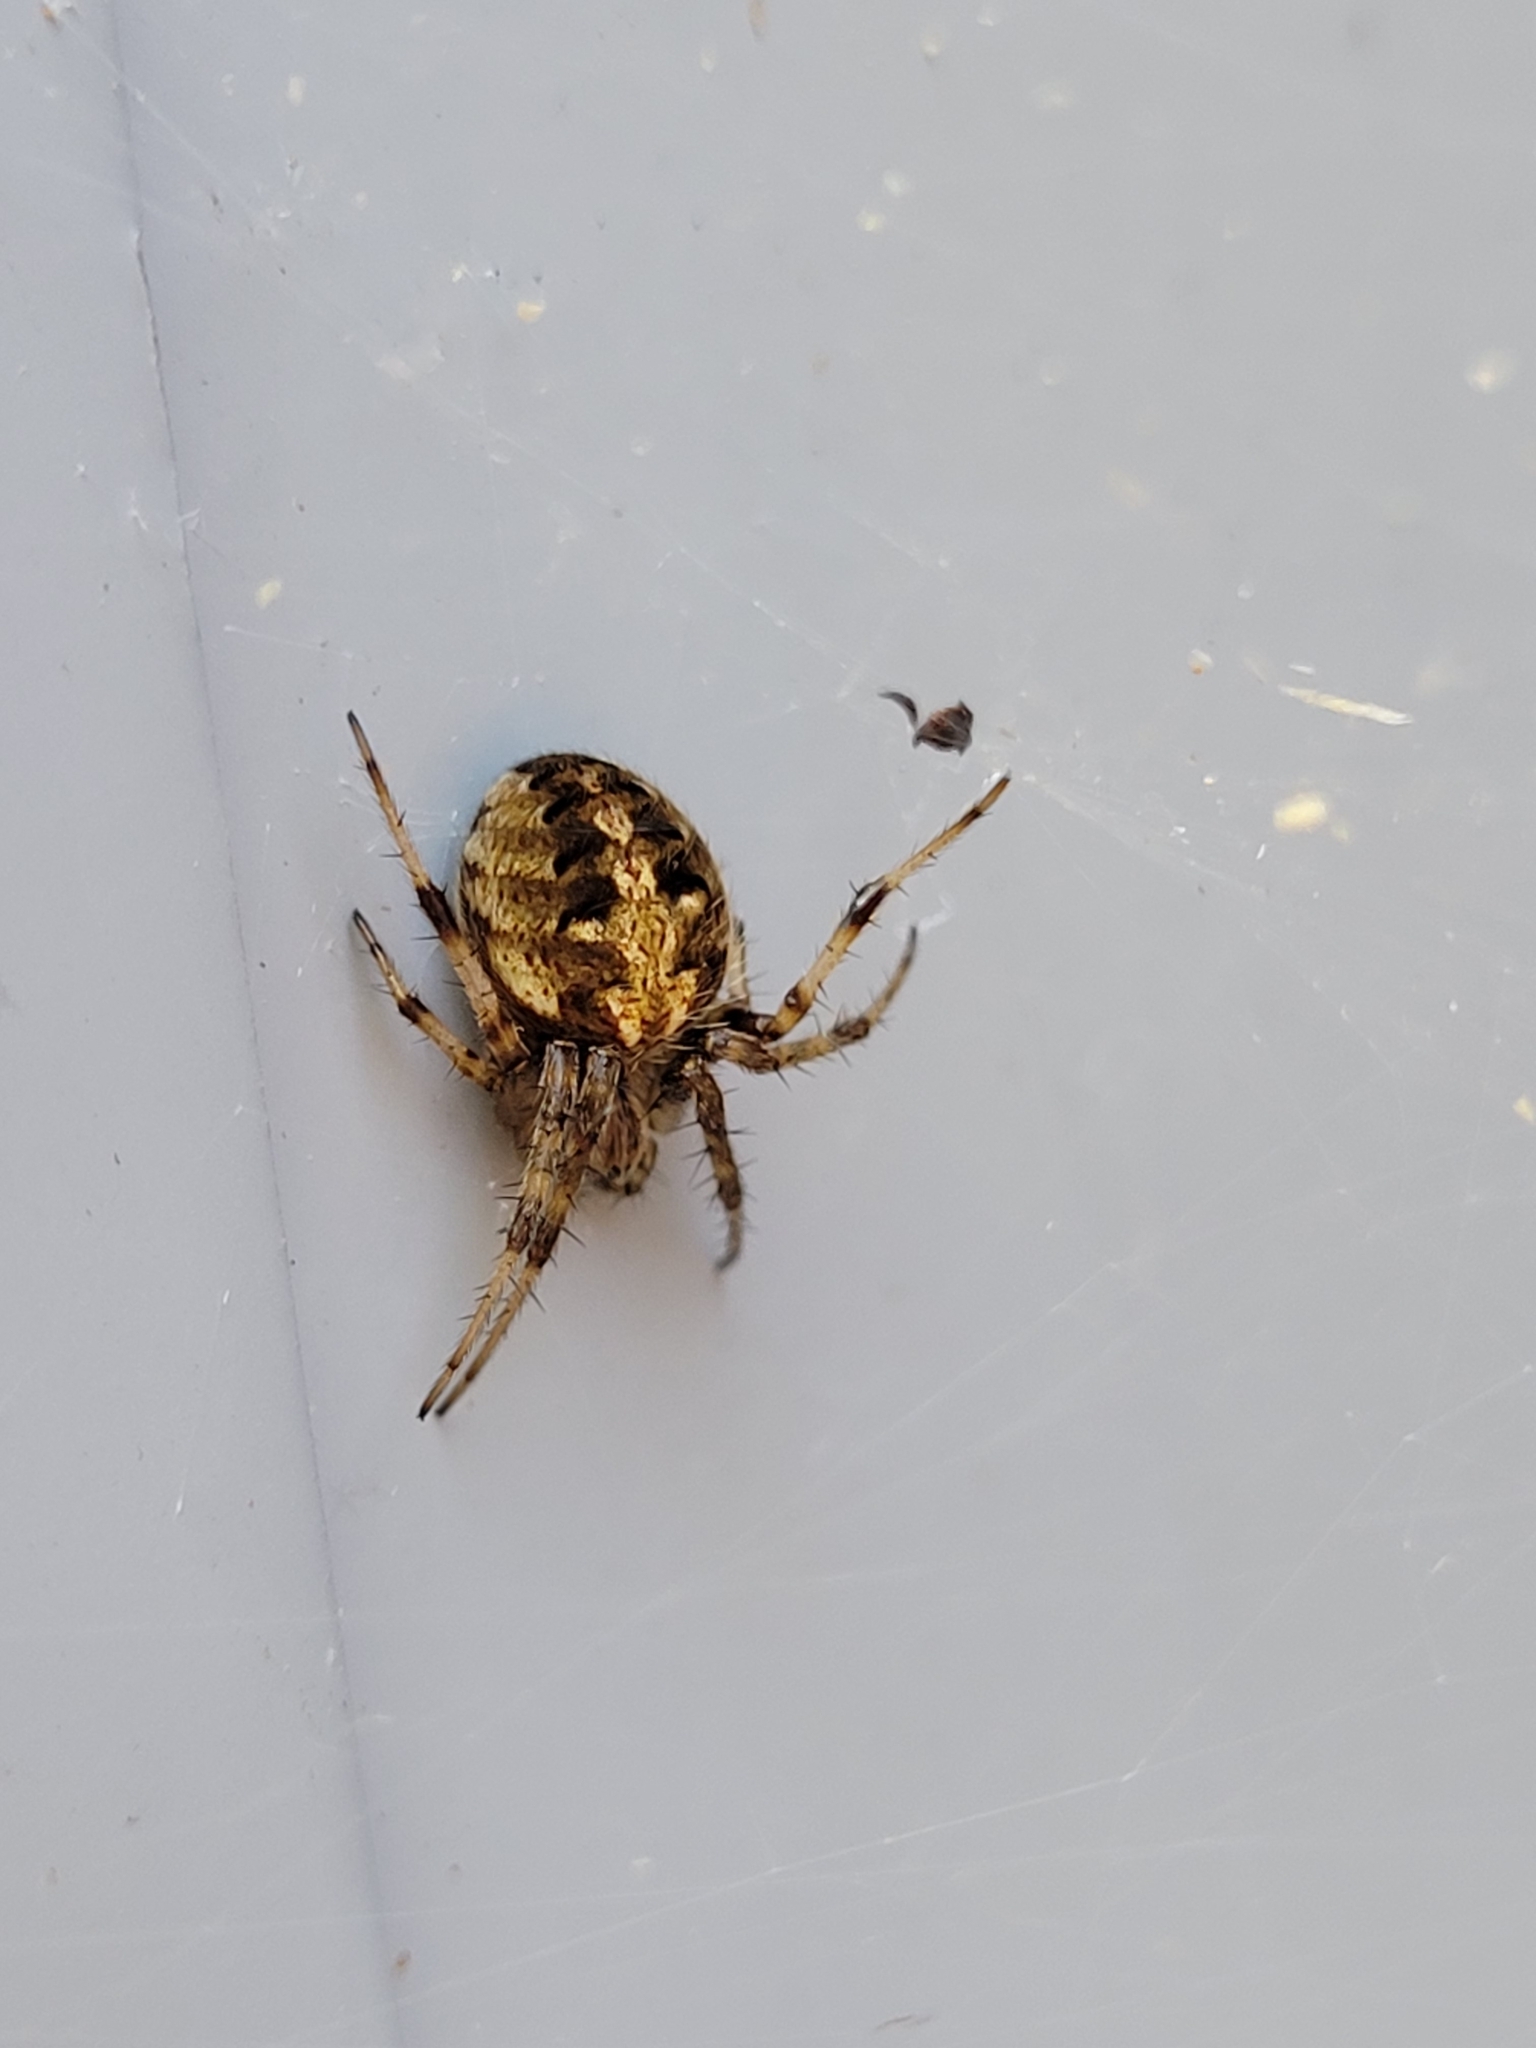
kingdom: Animalia
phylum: Arthropoda
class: Arachnida
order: Araneae
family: Araneidae
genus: Neoscona
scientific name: Neoscona arabesca
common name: Orb weavers
